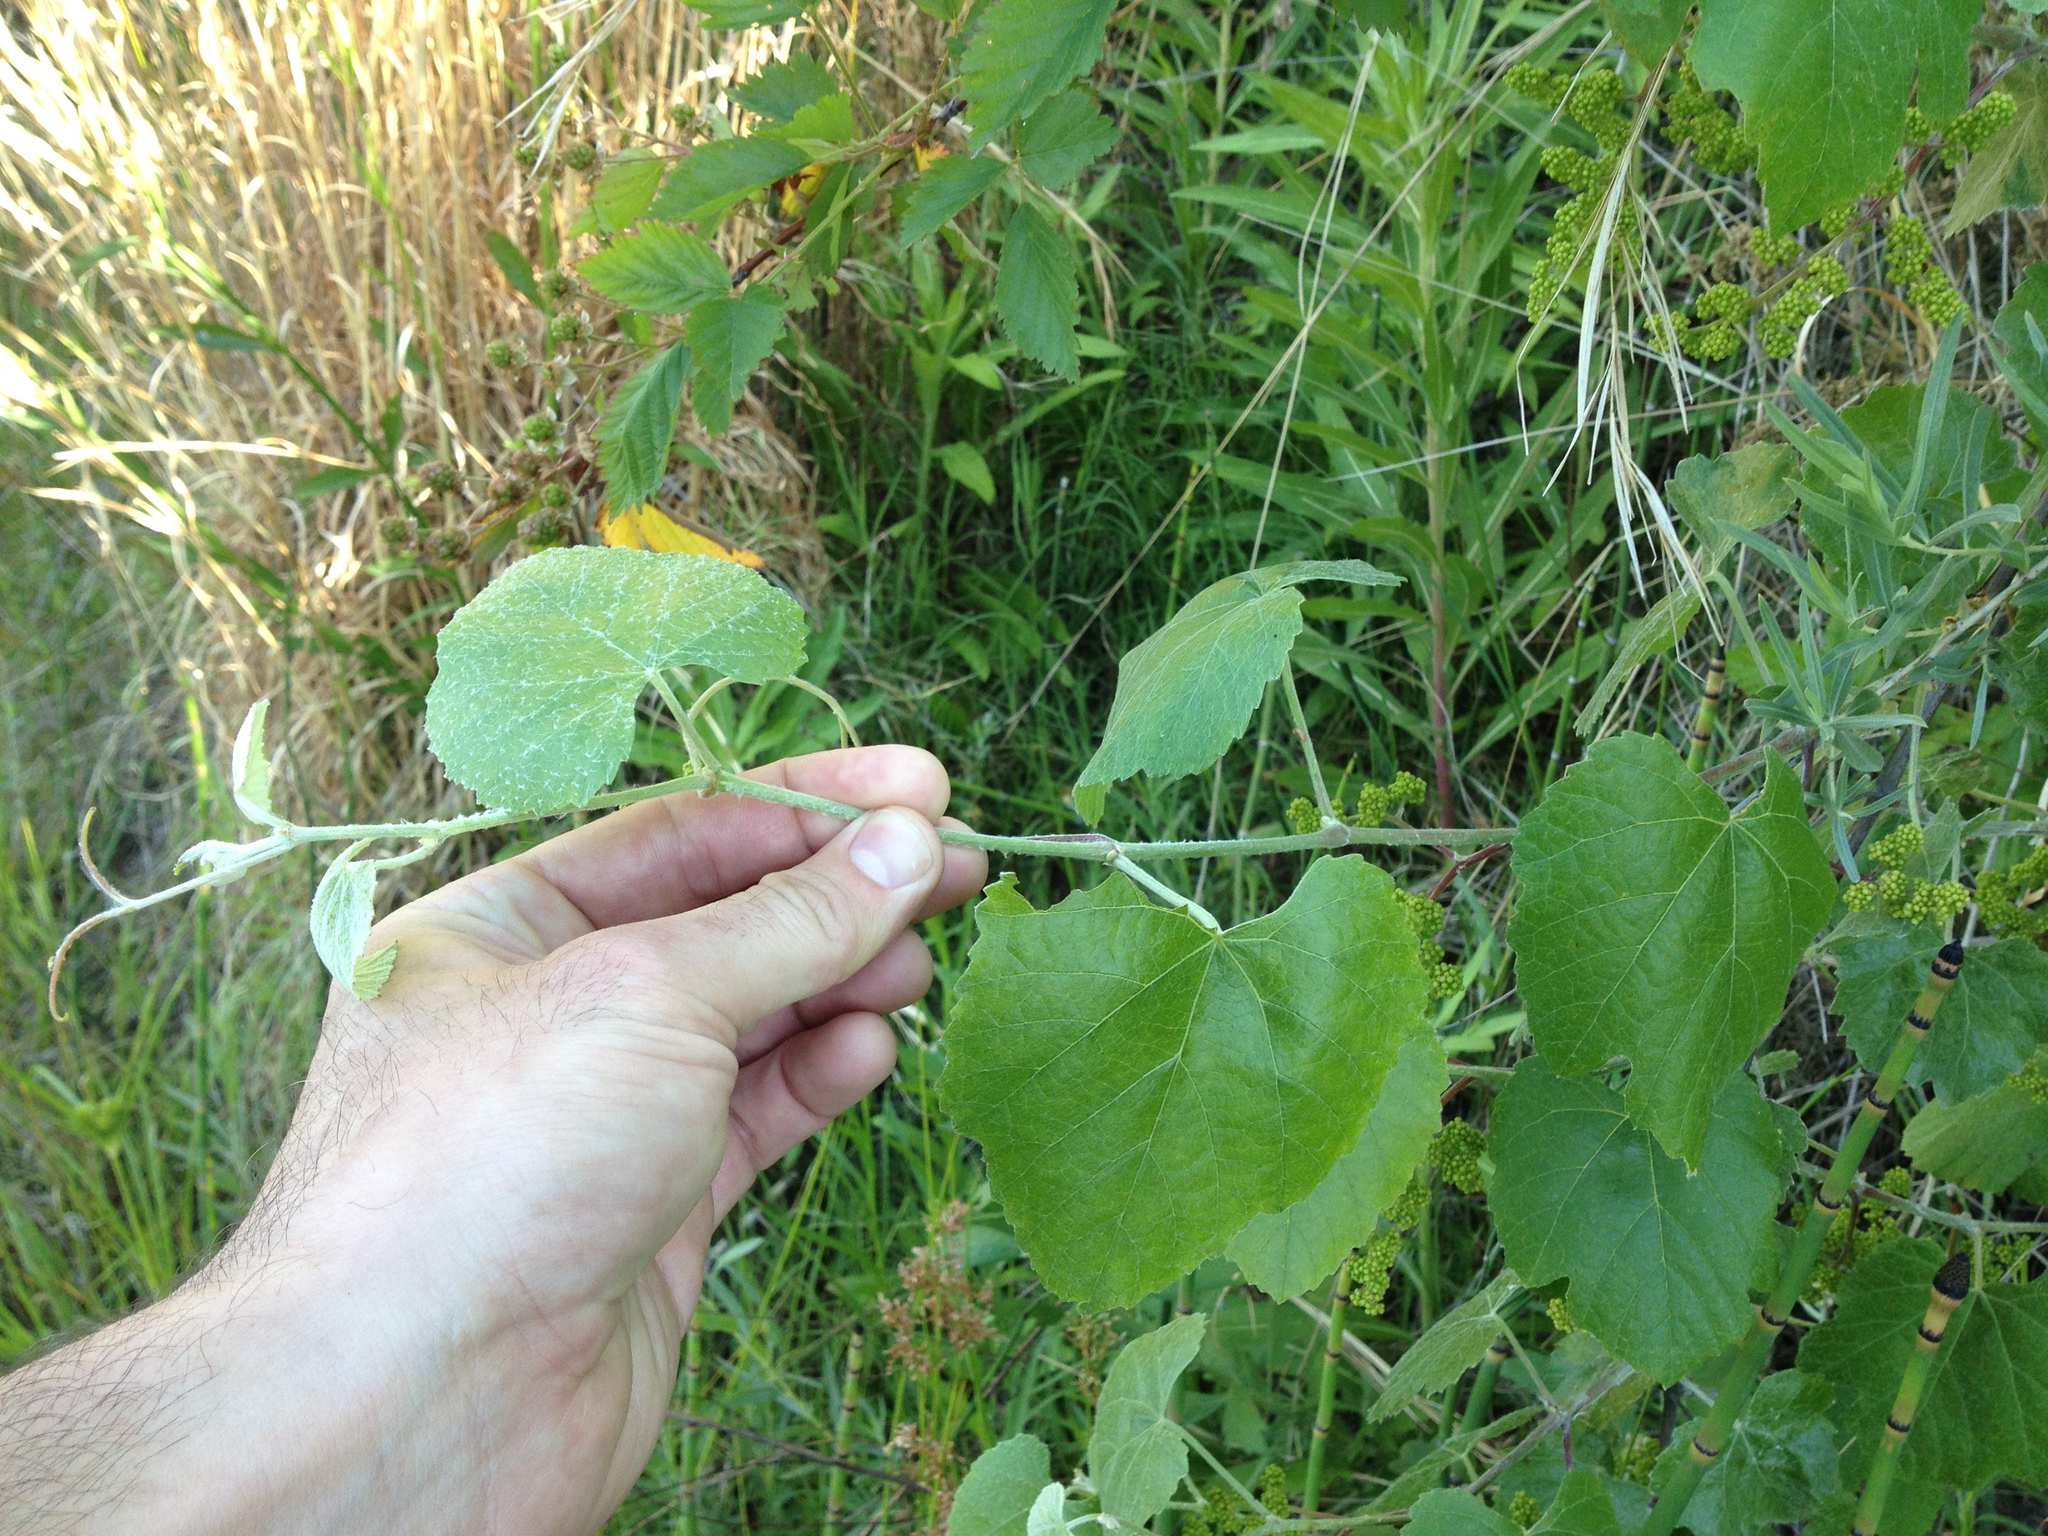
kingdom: Plantae
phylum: Tracheophyta
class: Magnoliopsida
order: Vitales
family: Vitaceae
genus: Vitis
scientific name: Vitis californica
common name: California wild grape
